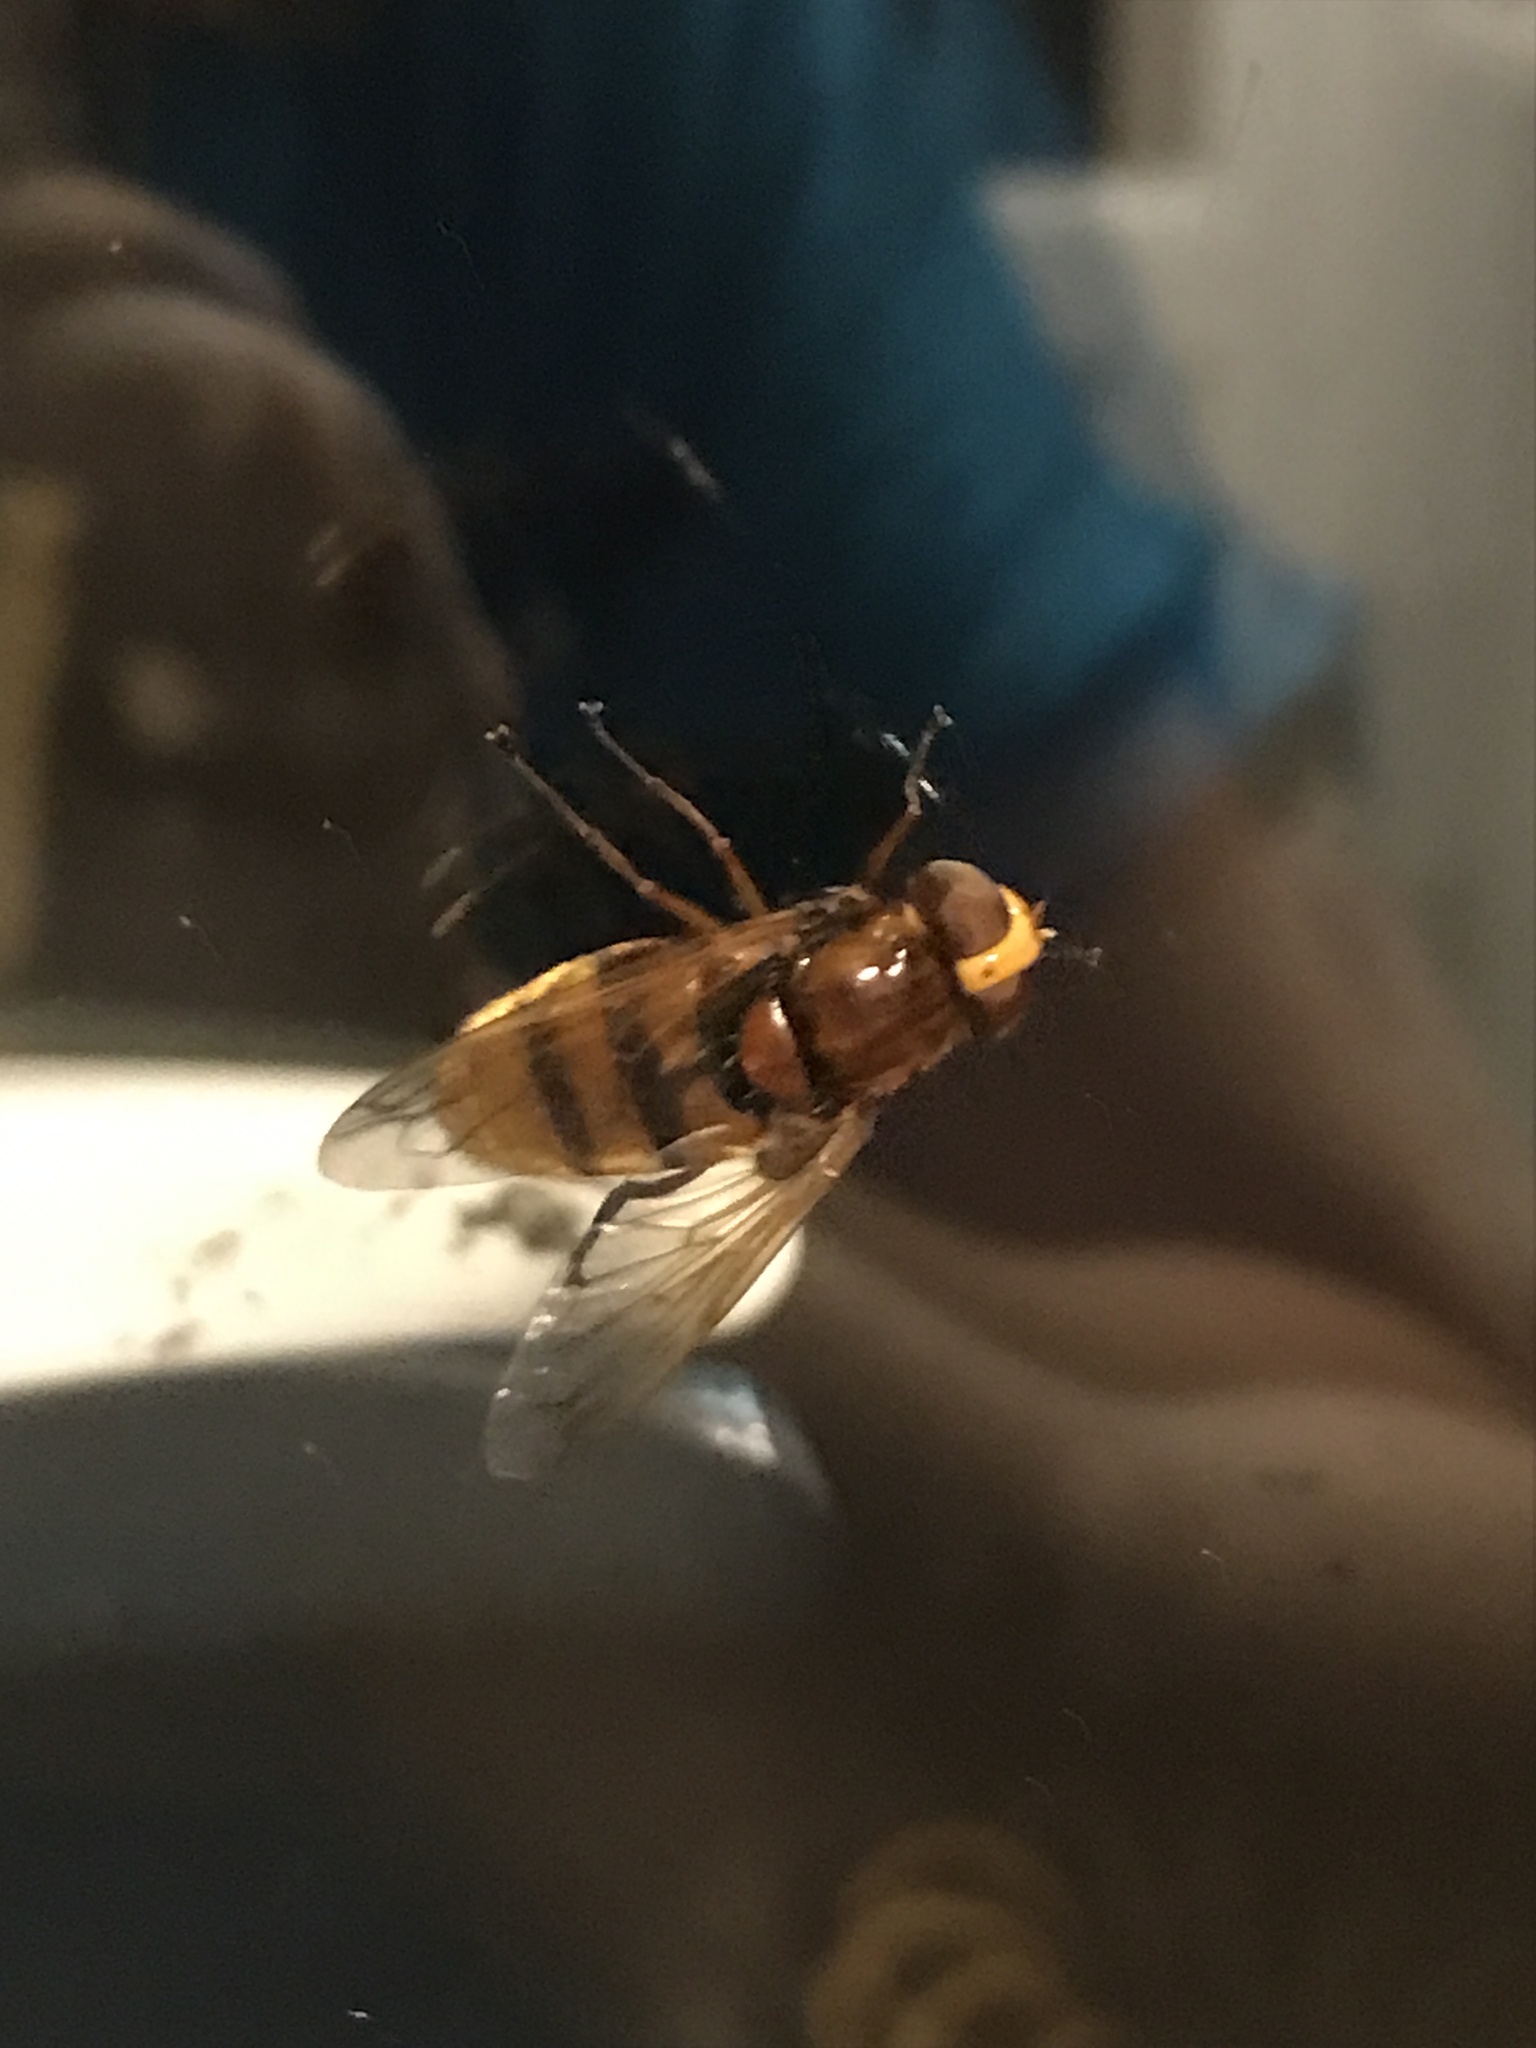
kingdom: Animalia
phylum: Arthropoda
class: Insecta
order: Diptera
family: Syrphidae
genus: Volucella
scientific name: Volucella zonaria
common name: Hornet hoverfly
